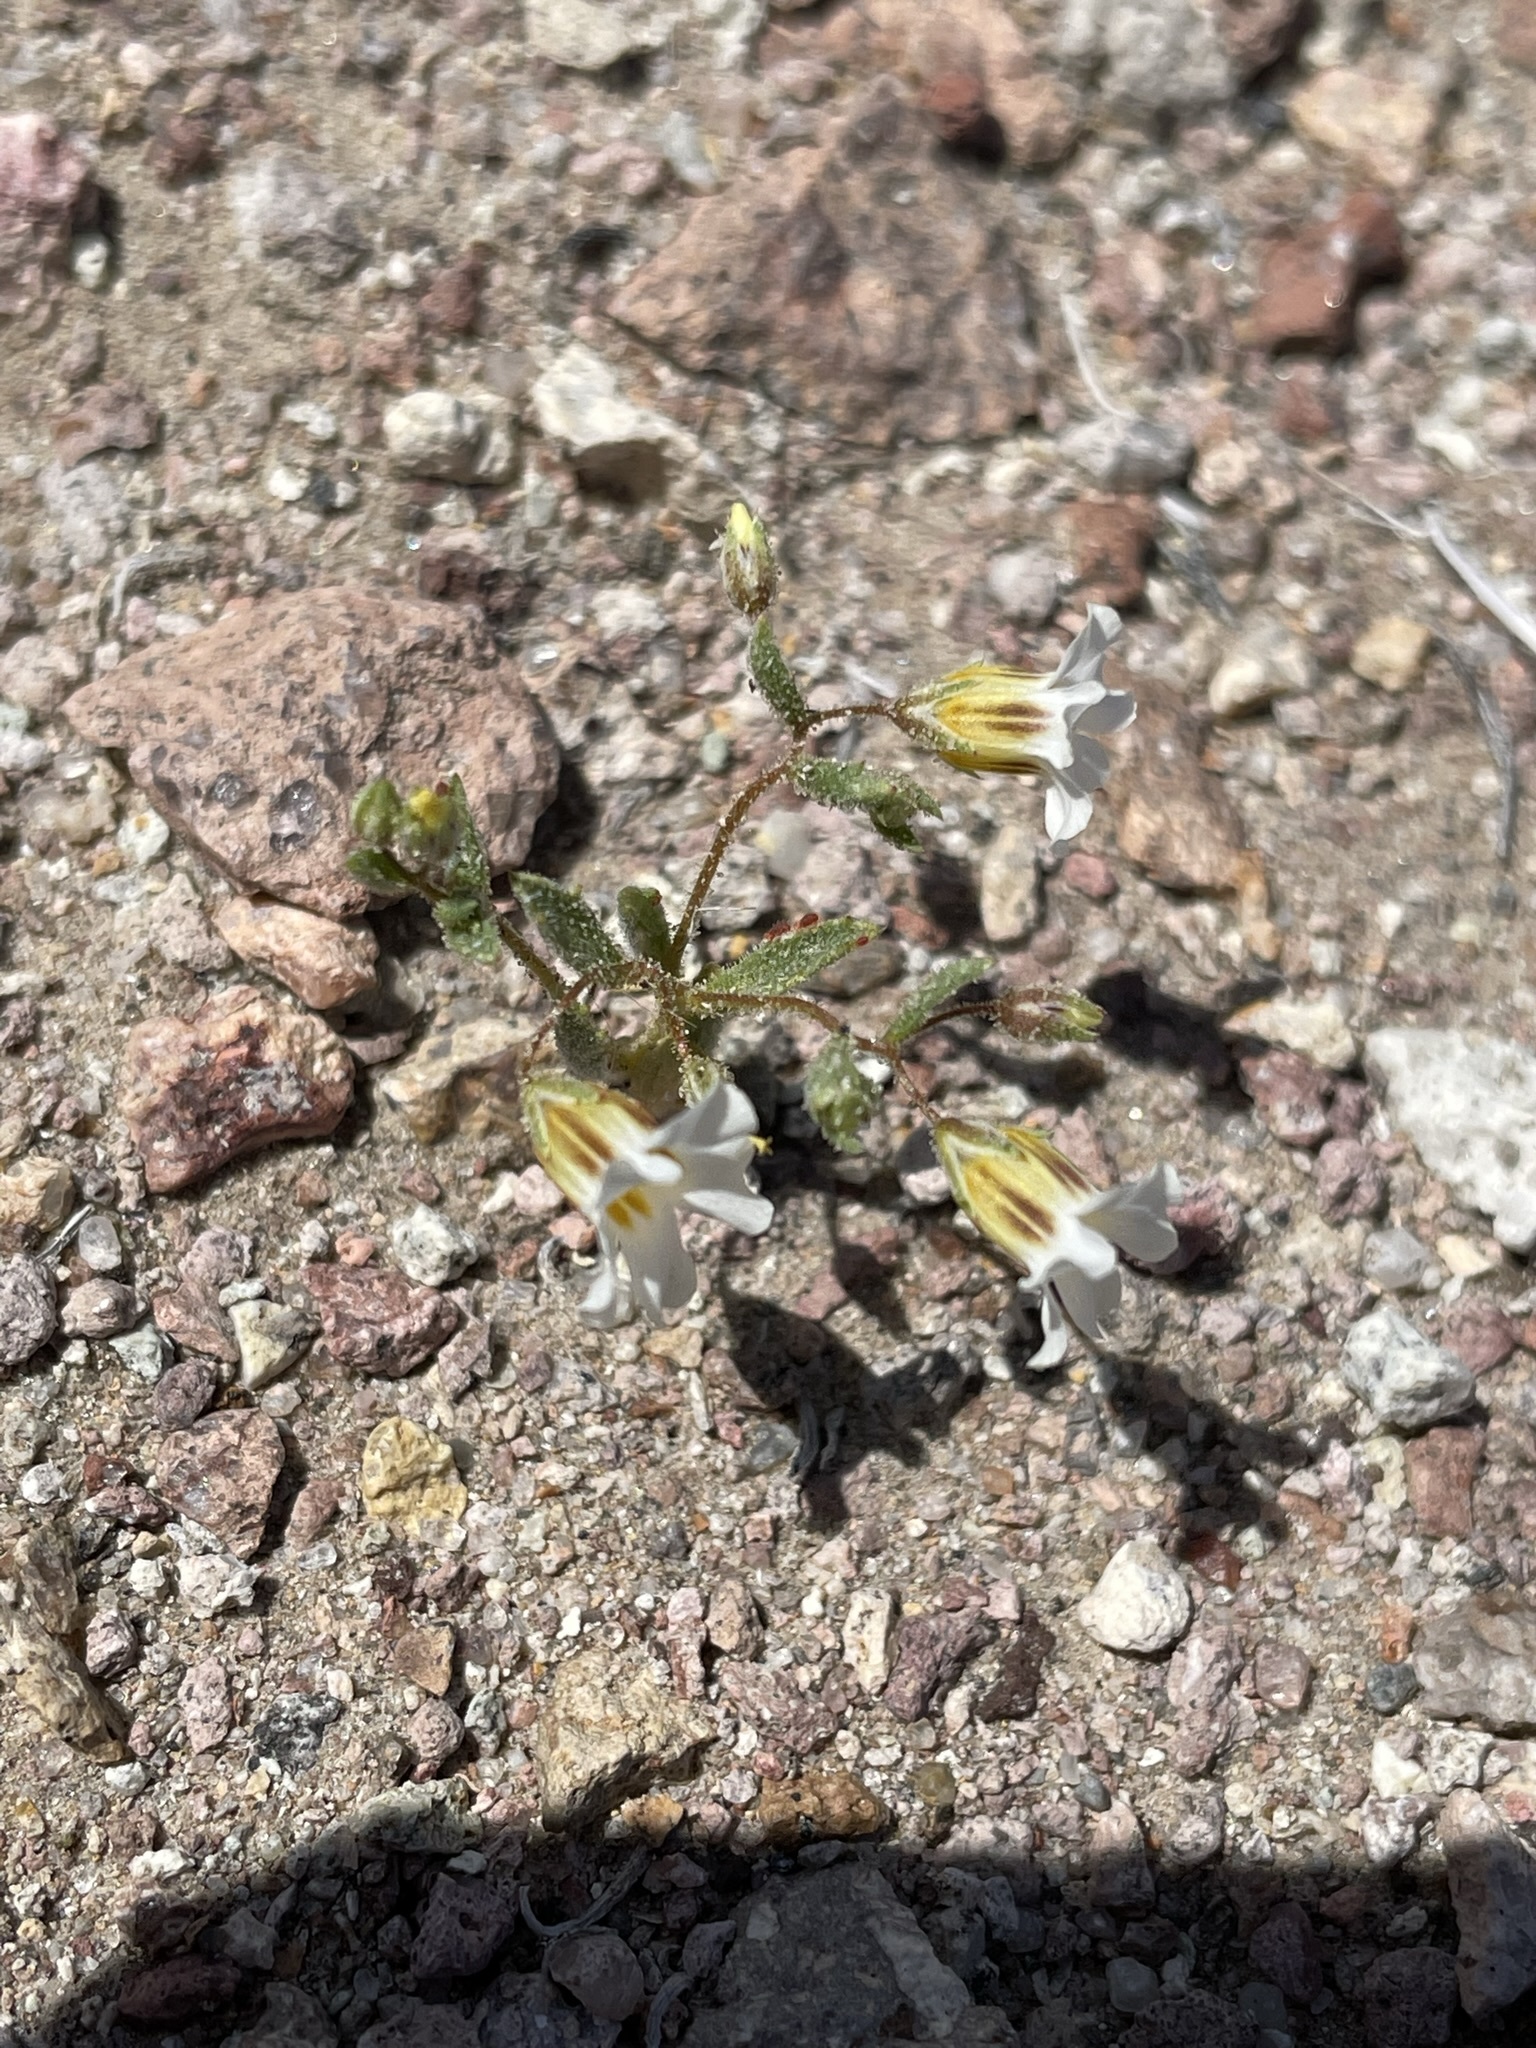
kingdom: Plantae
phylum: Tracheophyta
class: Magnoliopsida
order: Ericales
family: Polemoniaceae
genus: Linanthus
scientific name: Linanthus campanulatus
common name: Bellshape gilia
